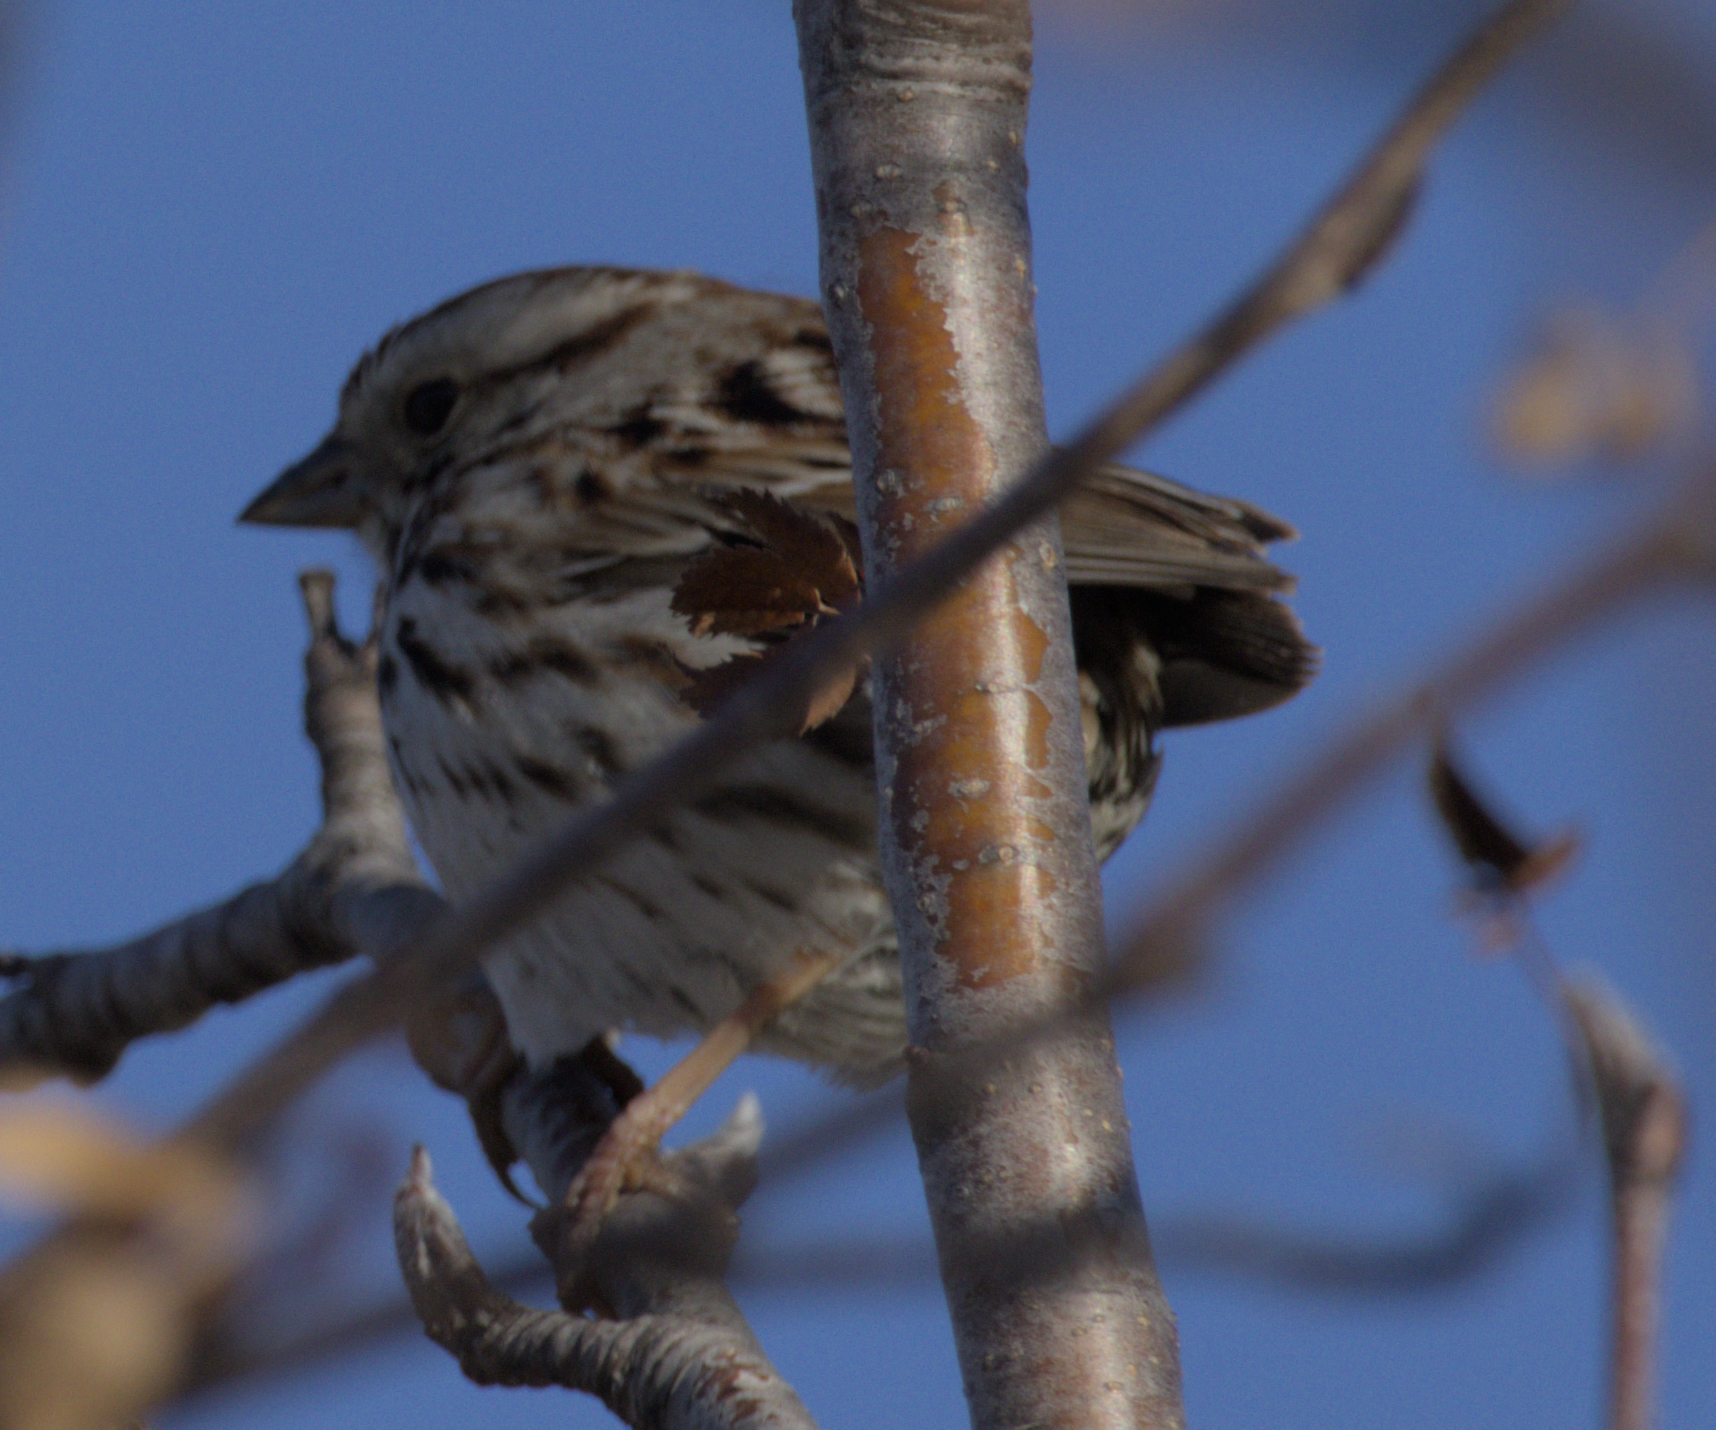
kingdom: Animalia
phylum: Chordata
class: Aves
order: Passeriformes
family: Passerellidae
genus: Melospiza
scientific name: Melospiza melodia
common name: Song sparrow
